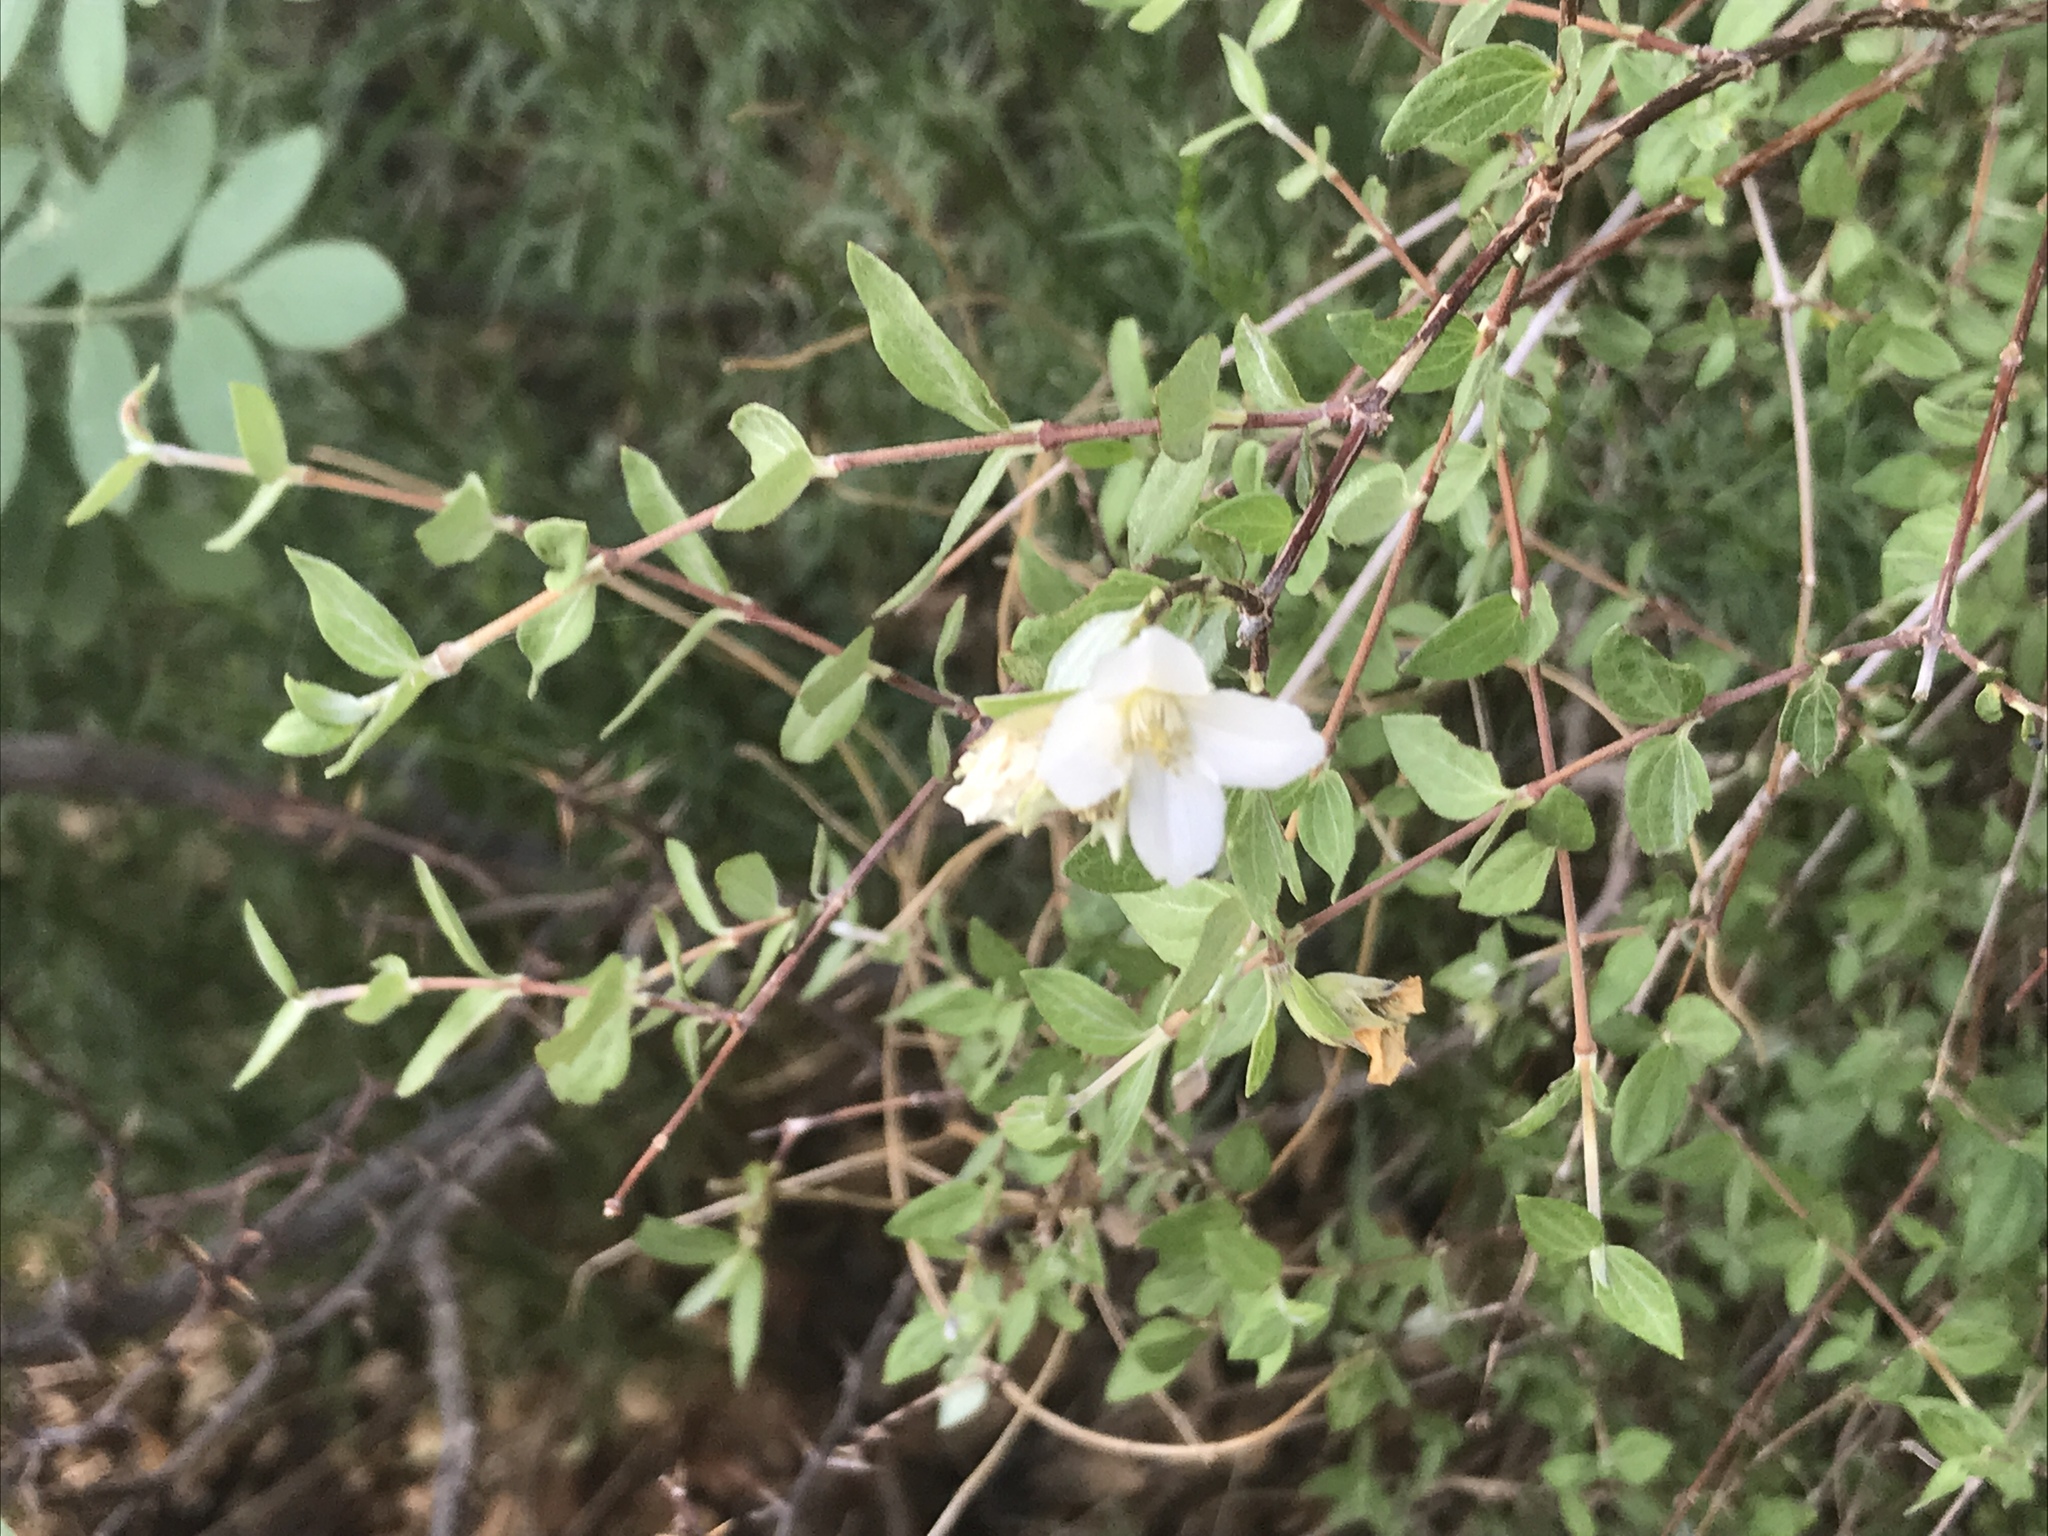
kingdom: Plantae
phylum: Tracheophyta
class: Magnoliopsida
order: Cornales
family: Hydrangeaceae
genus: Philadelphus
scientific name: Philadelphus microphyllus
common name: Desert mock orange
